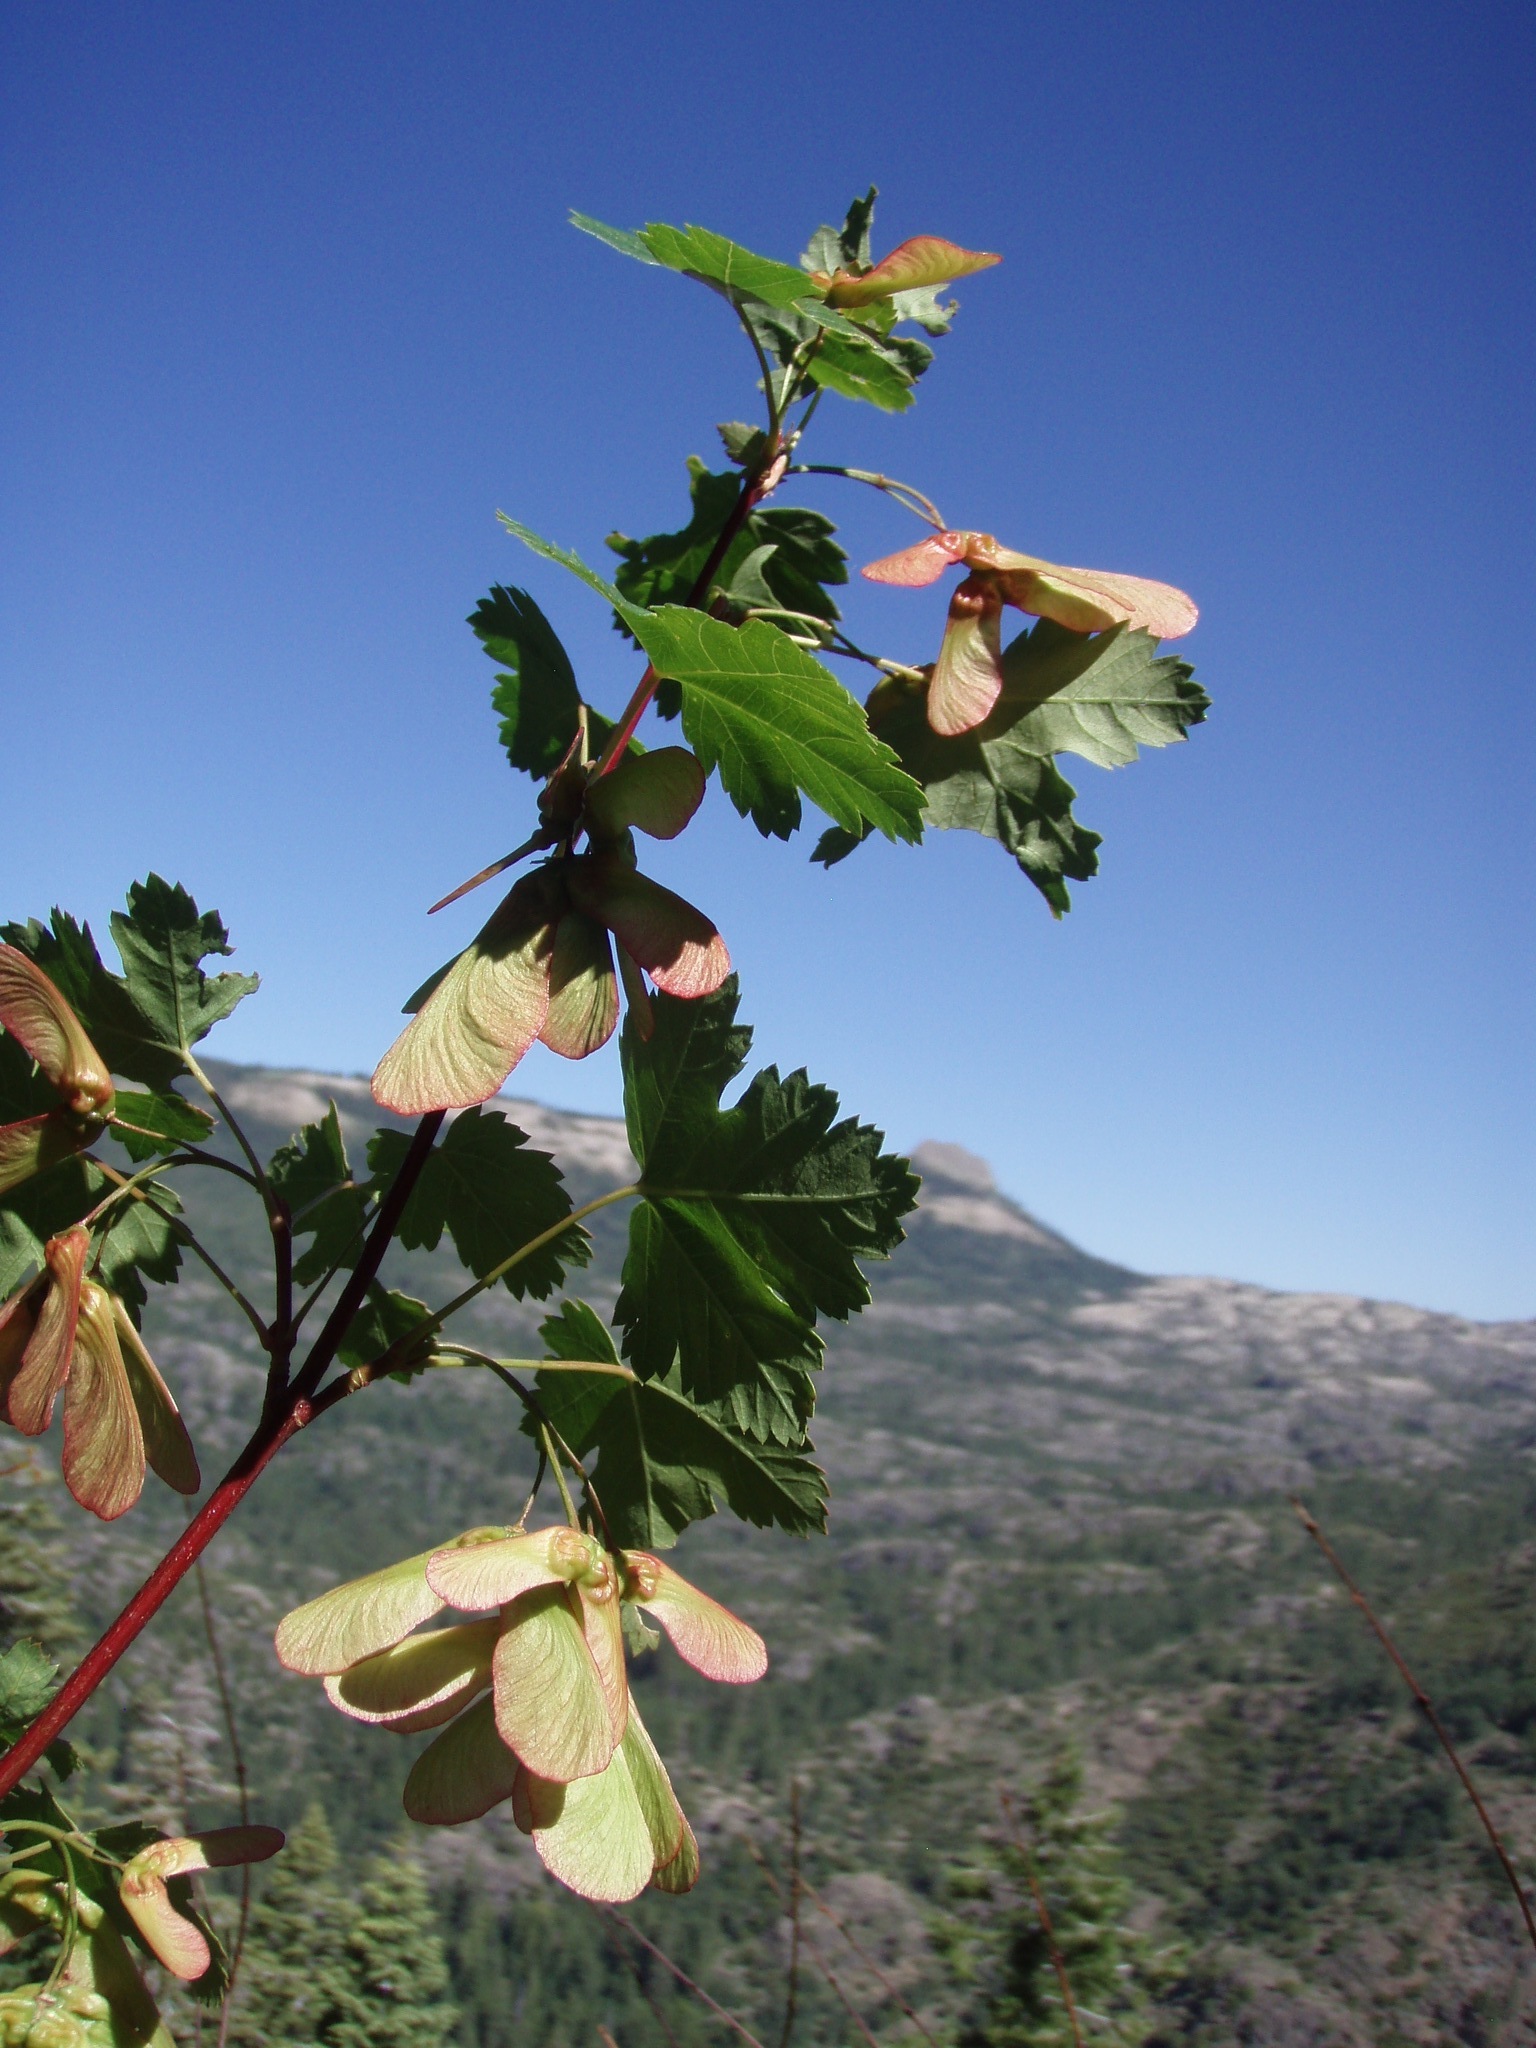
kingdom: Plantae
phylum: Tracheophyta
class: Magnoliopsida
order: Sapindales
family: Sapindaceae
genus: Acer
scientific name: Acer glabrum
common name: Rocky mountain maple
